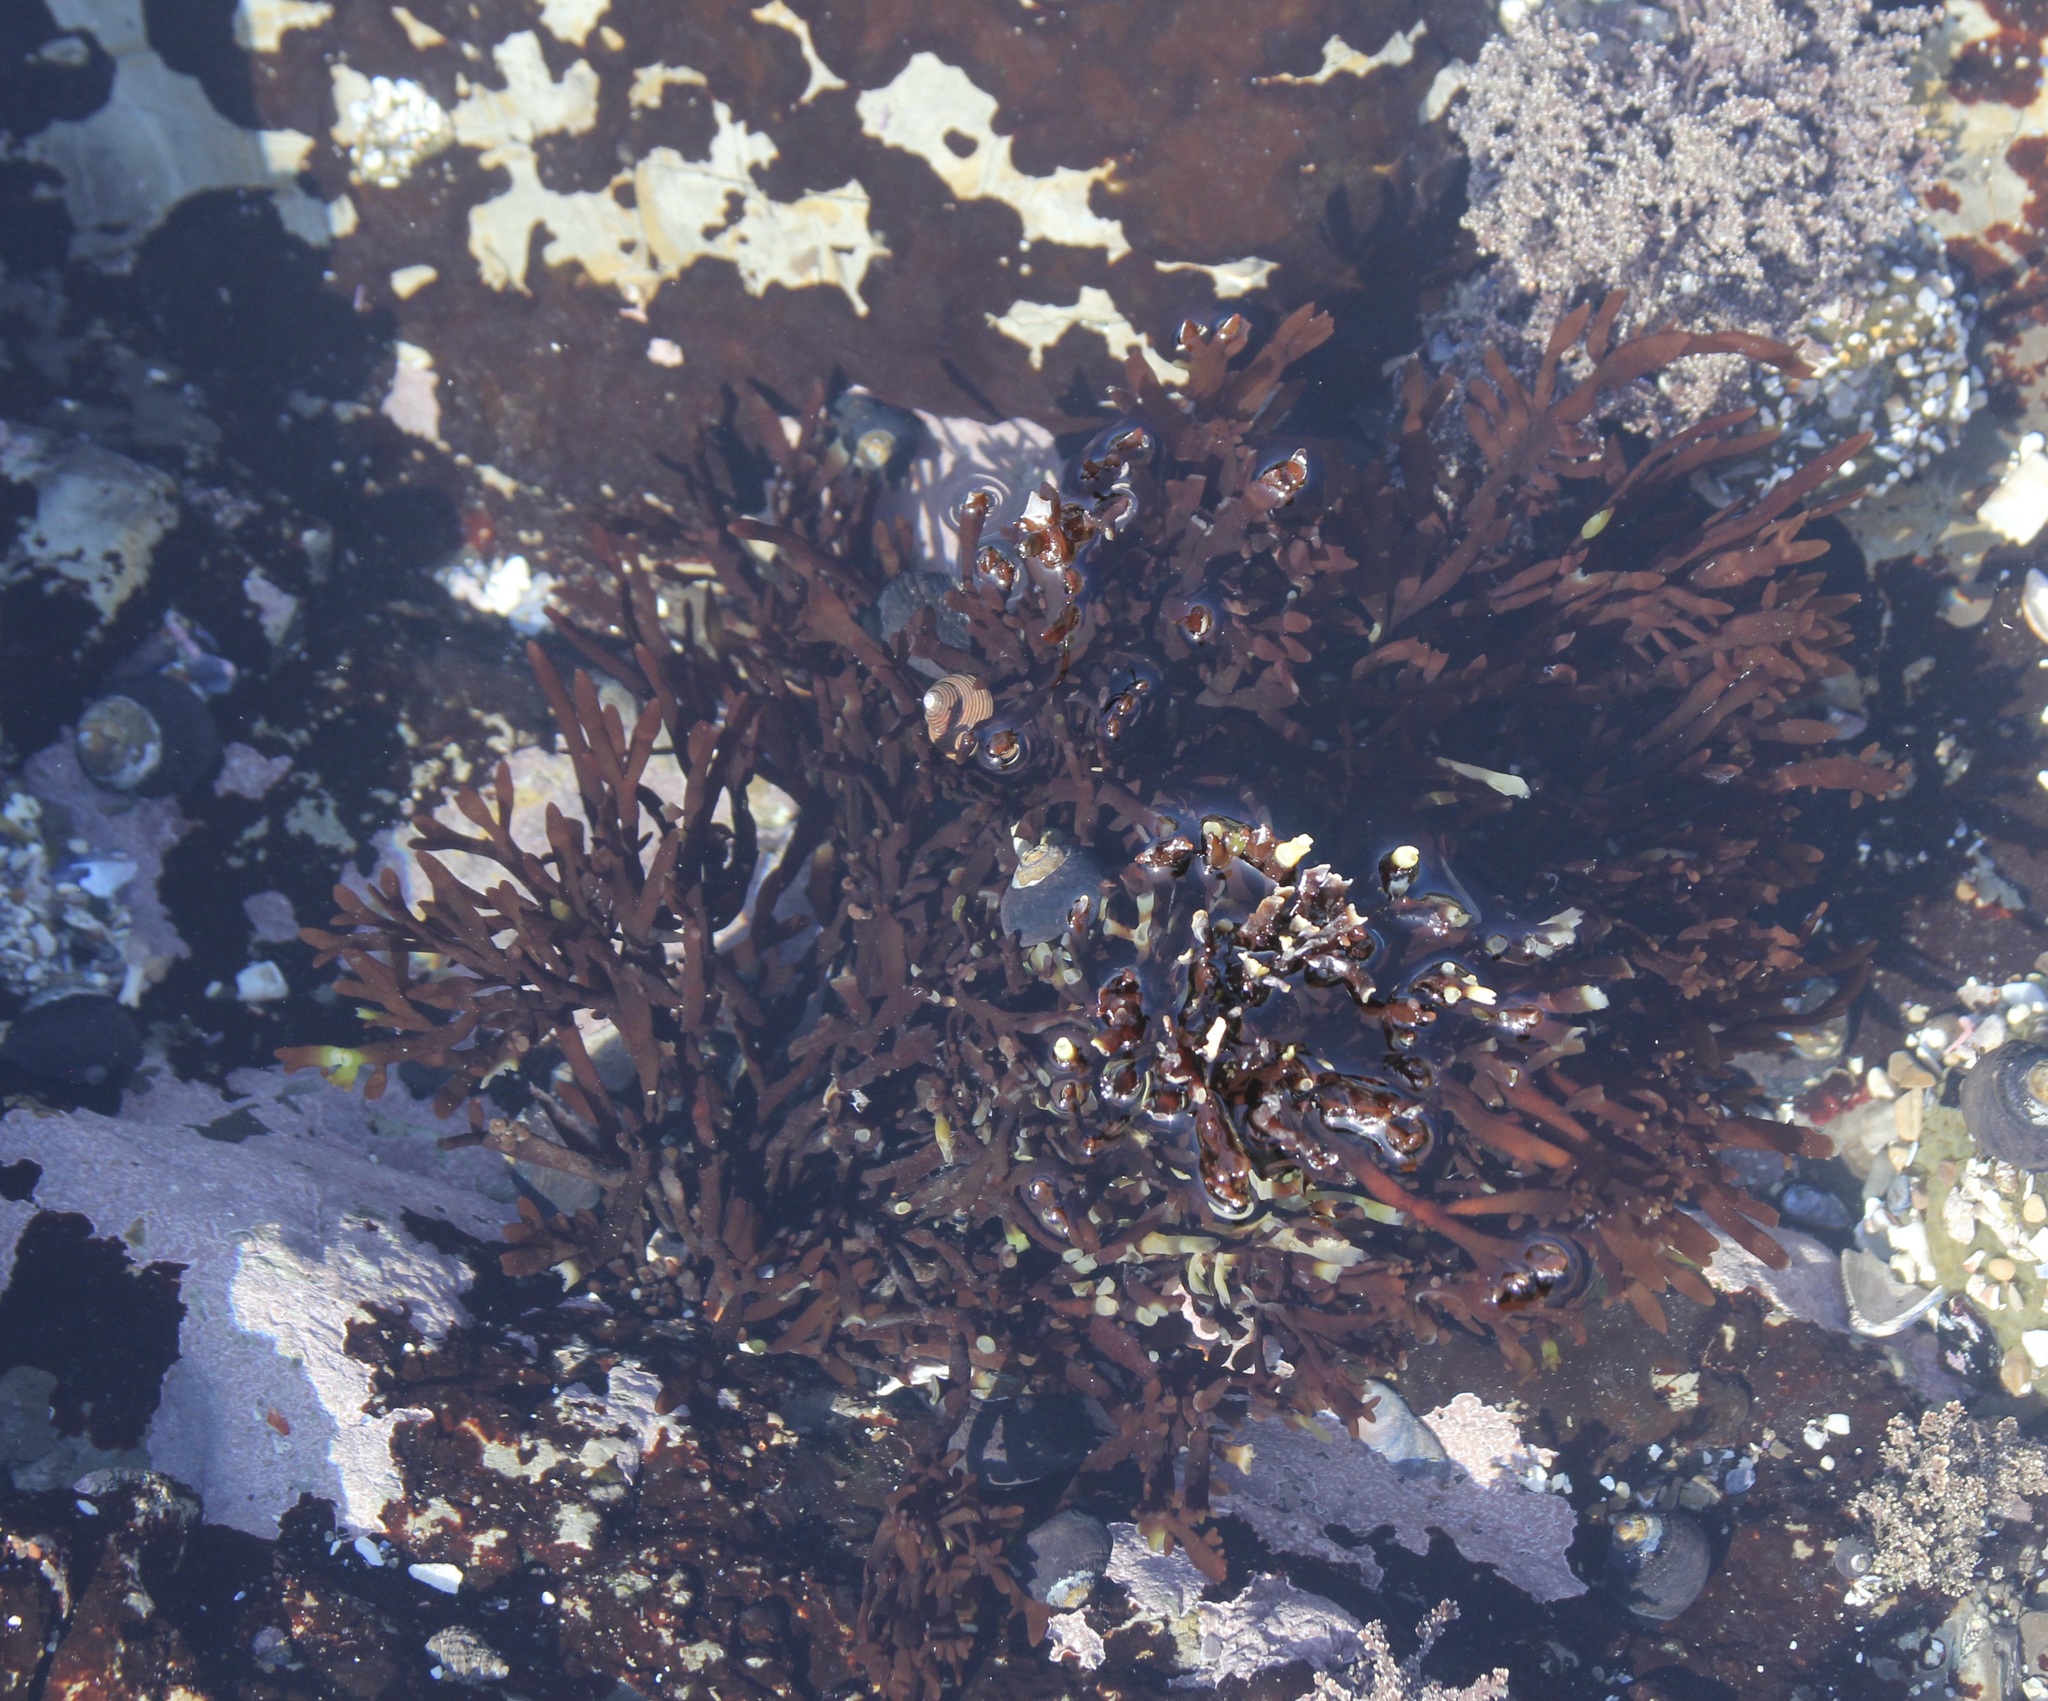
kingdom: Plantae
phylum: Rhodophyta
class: Florideophyceae
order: Halymeniales
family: Halymeniaceae
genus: Grateloupia
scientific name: Grateloupia Prionitis lanceolata
